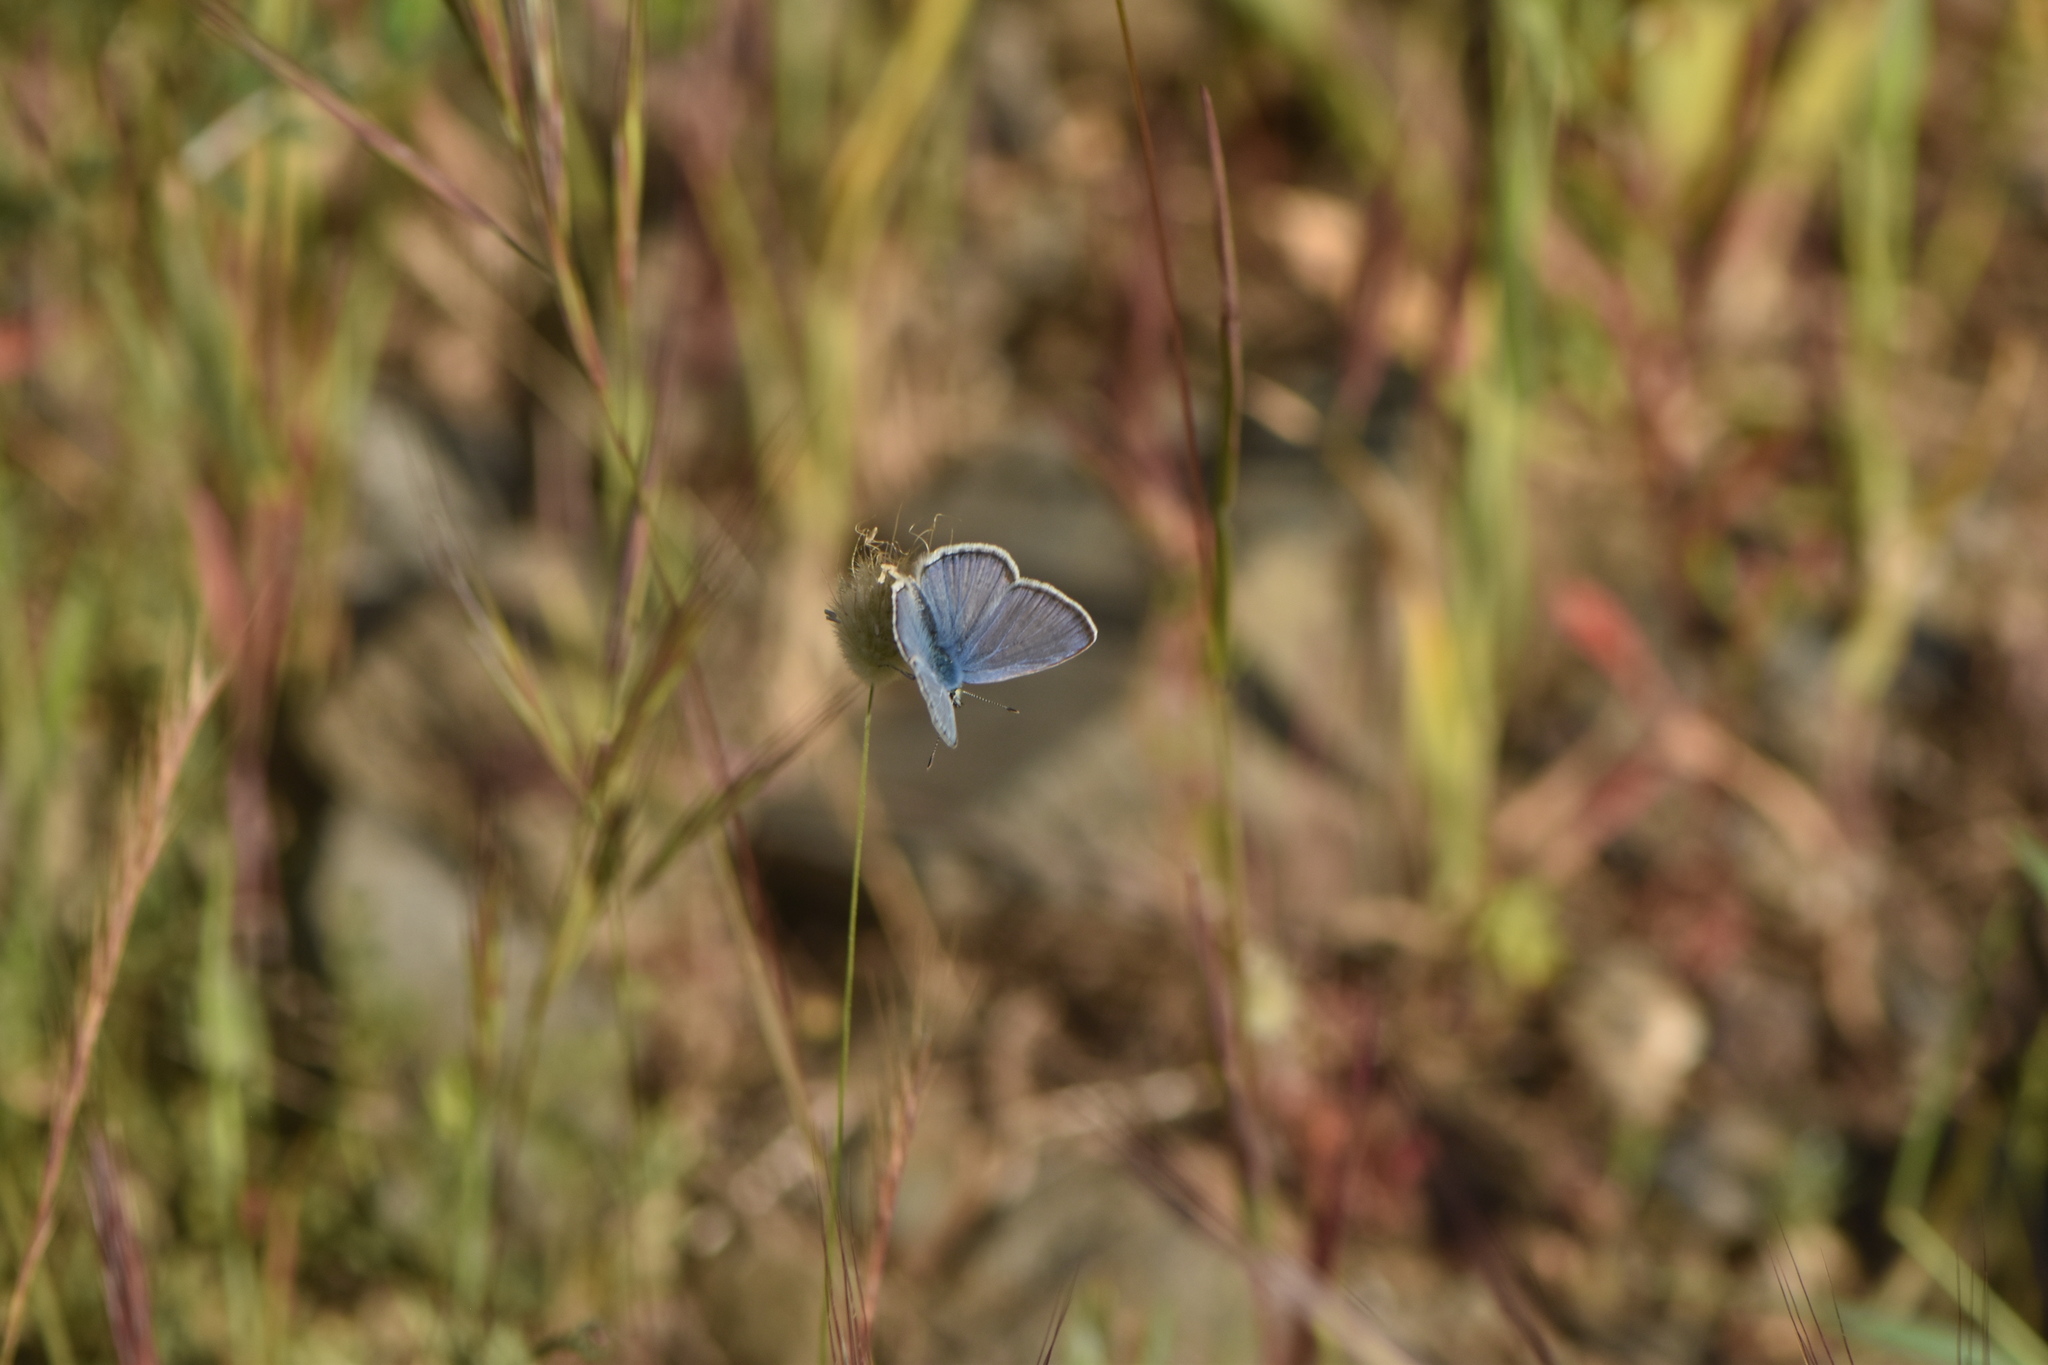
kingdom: Animalia
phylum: Arthropoda
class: Insecta
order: Lepidoptera
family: Lycaenidae
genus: Polyommatus
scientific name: Polyommatus celina
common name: Austaut's blue
